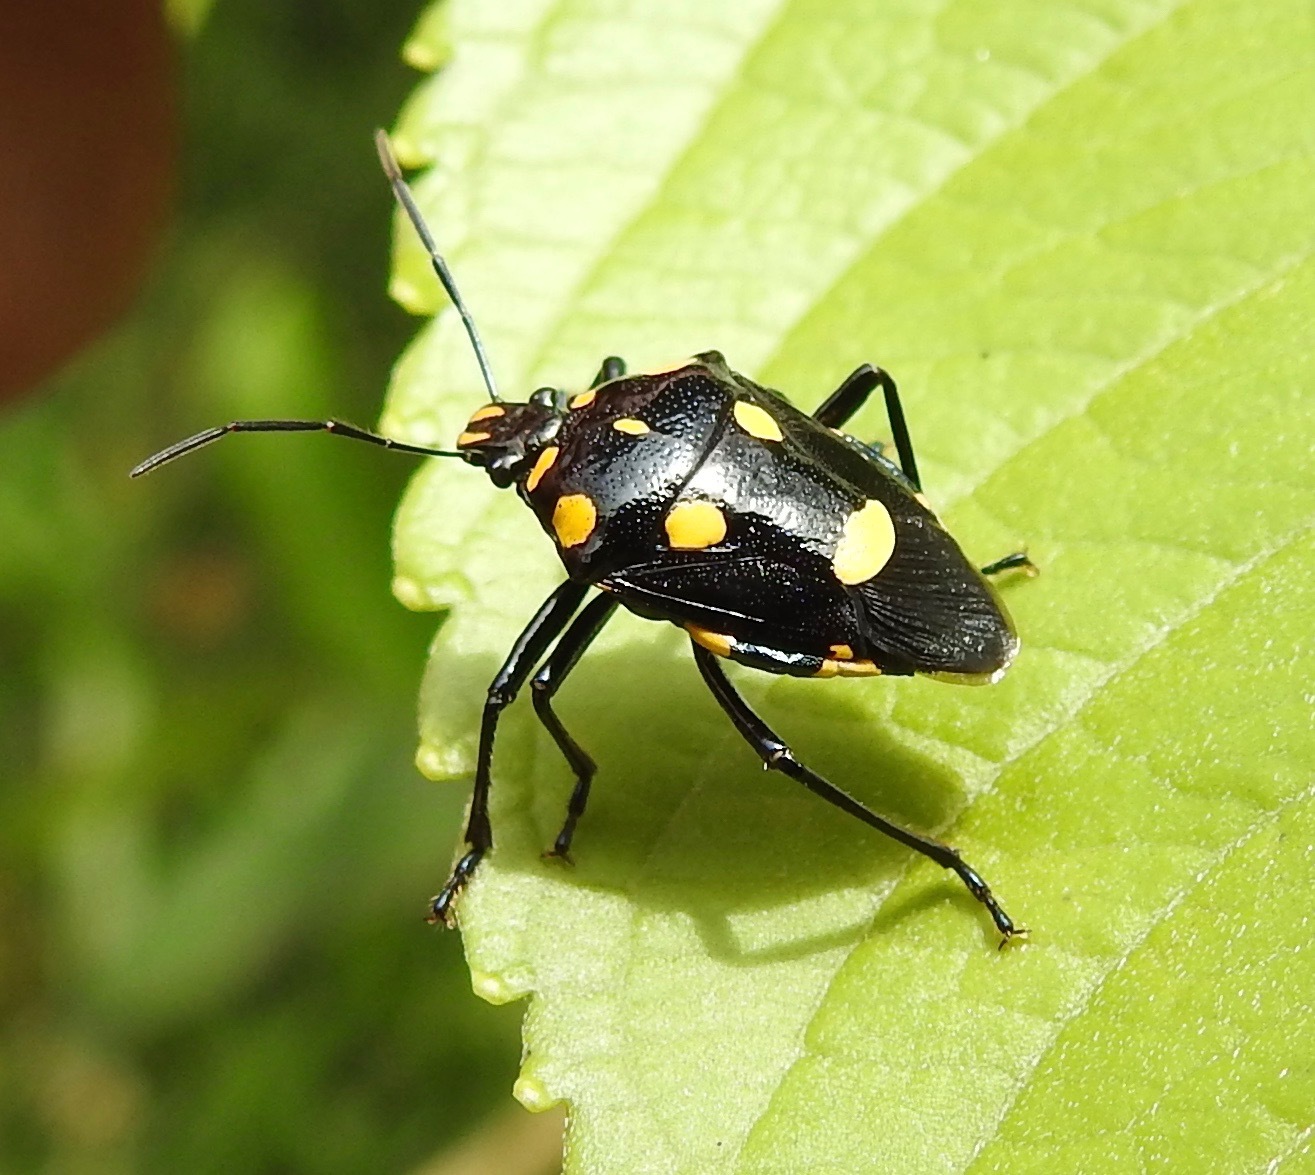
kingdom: Animalia
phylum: Arthropoda
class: Insecta
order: Hemiptera
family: Pentatomidae
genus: Oplomus
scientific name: Oplomus salamandra
